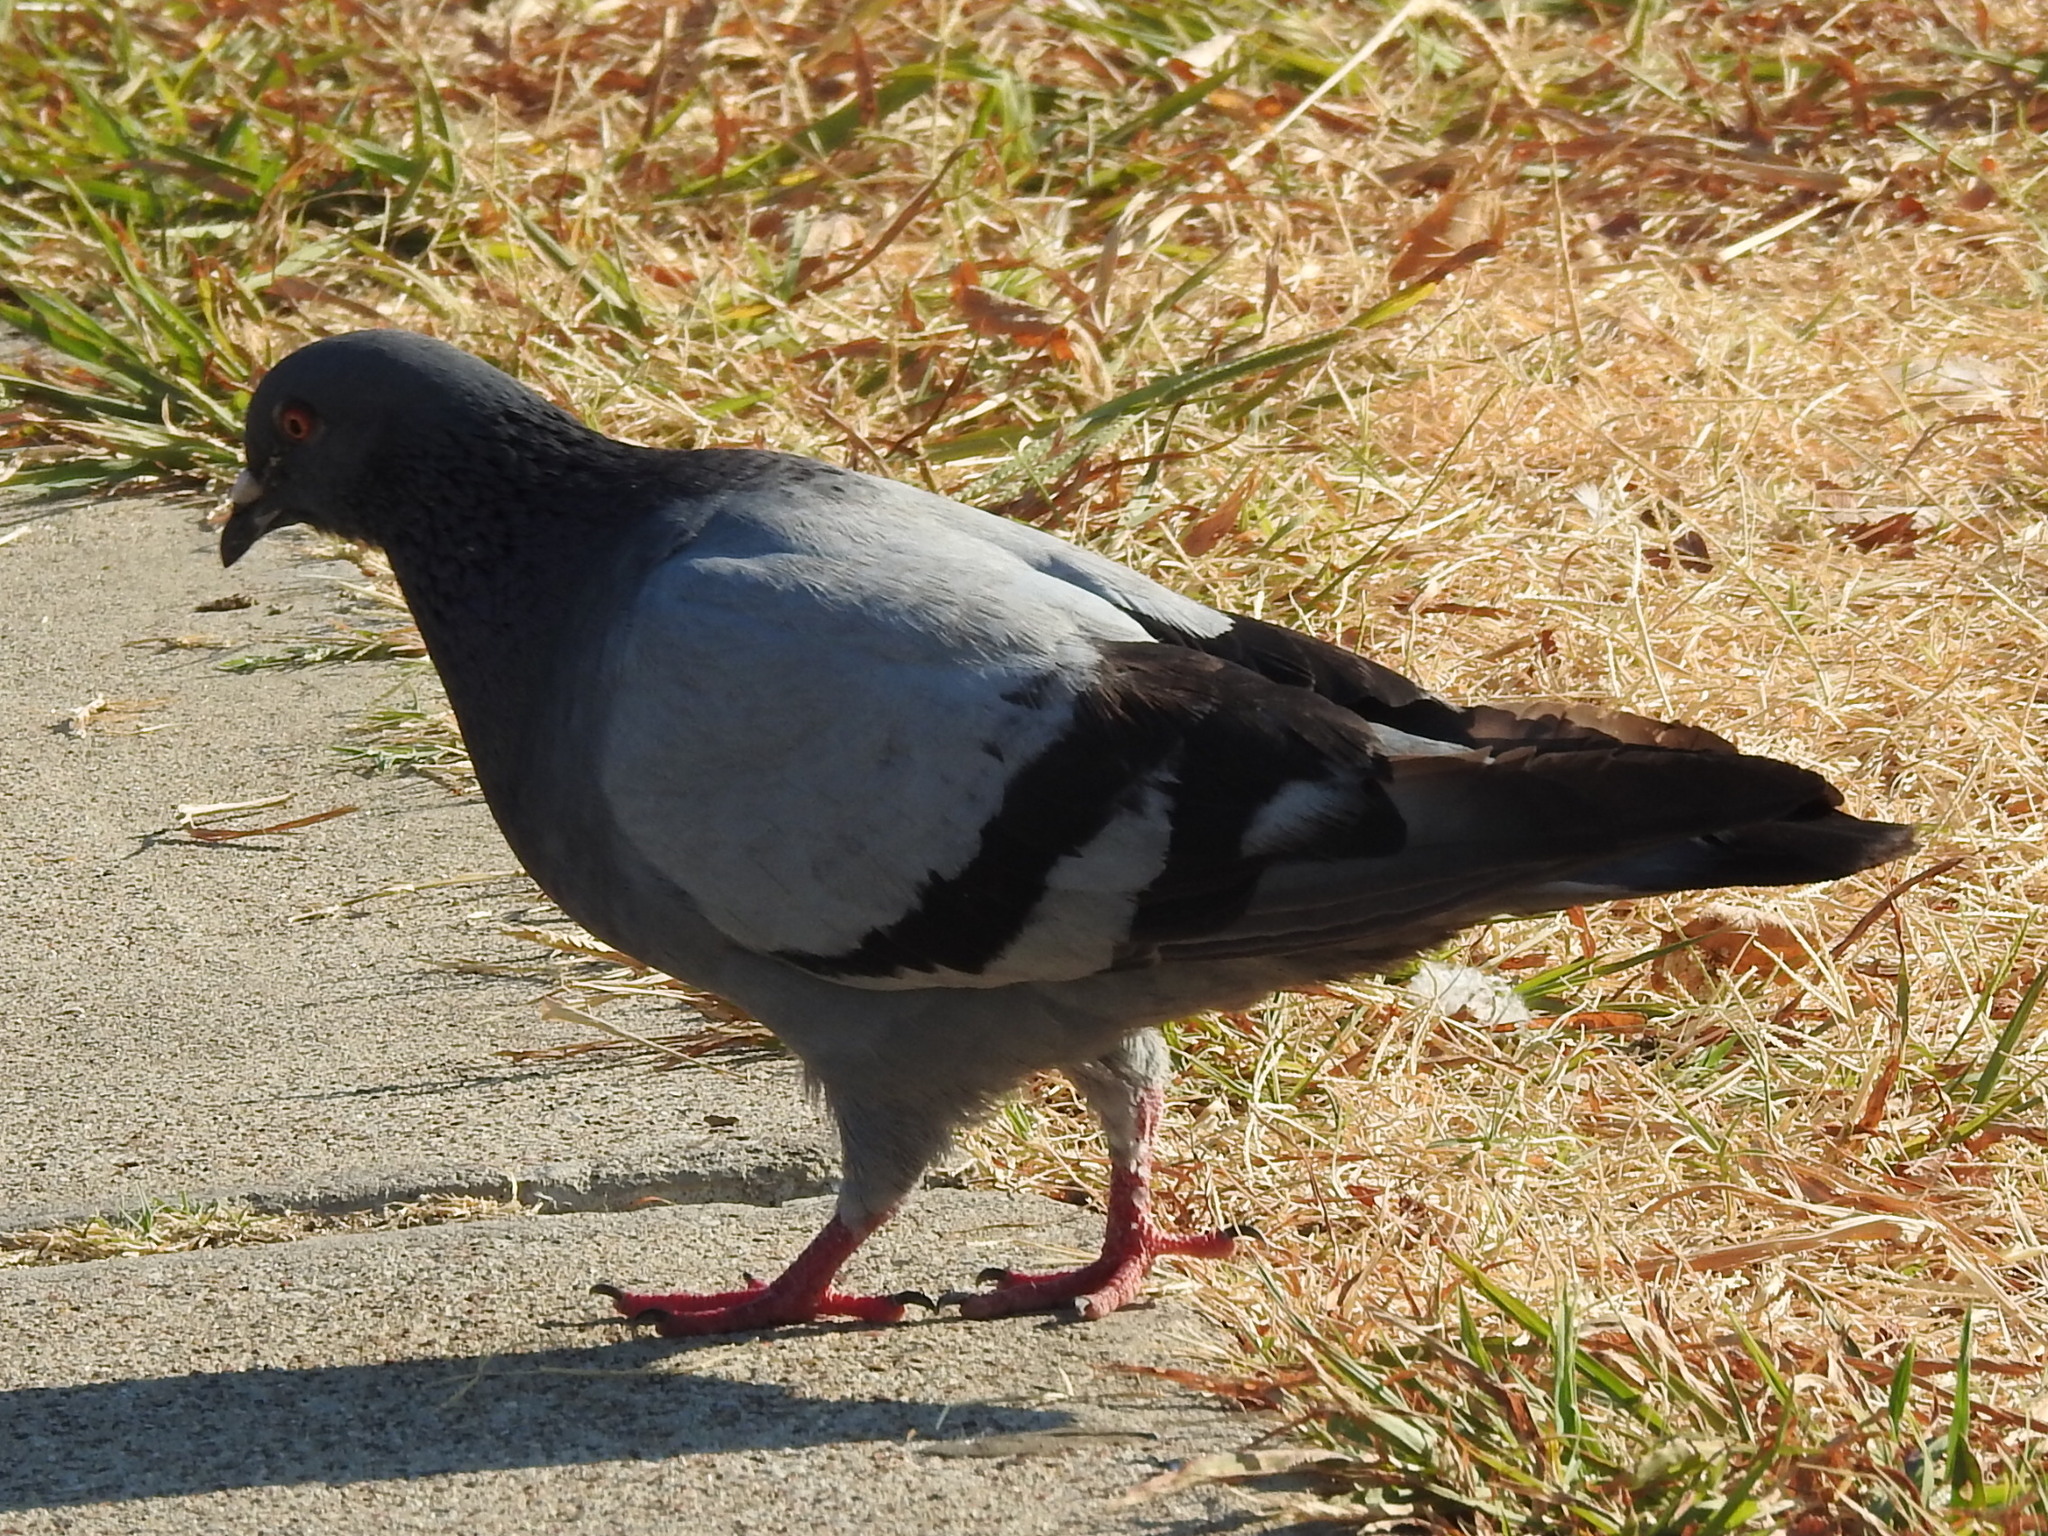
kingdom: Animalia
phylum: Chordata
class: Aves
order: Columbiformes
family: Columbidae
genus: Columba
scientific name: Columba livia
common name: Rock pigeon
